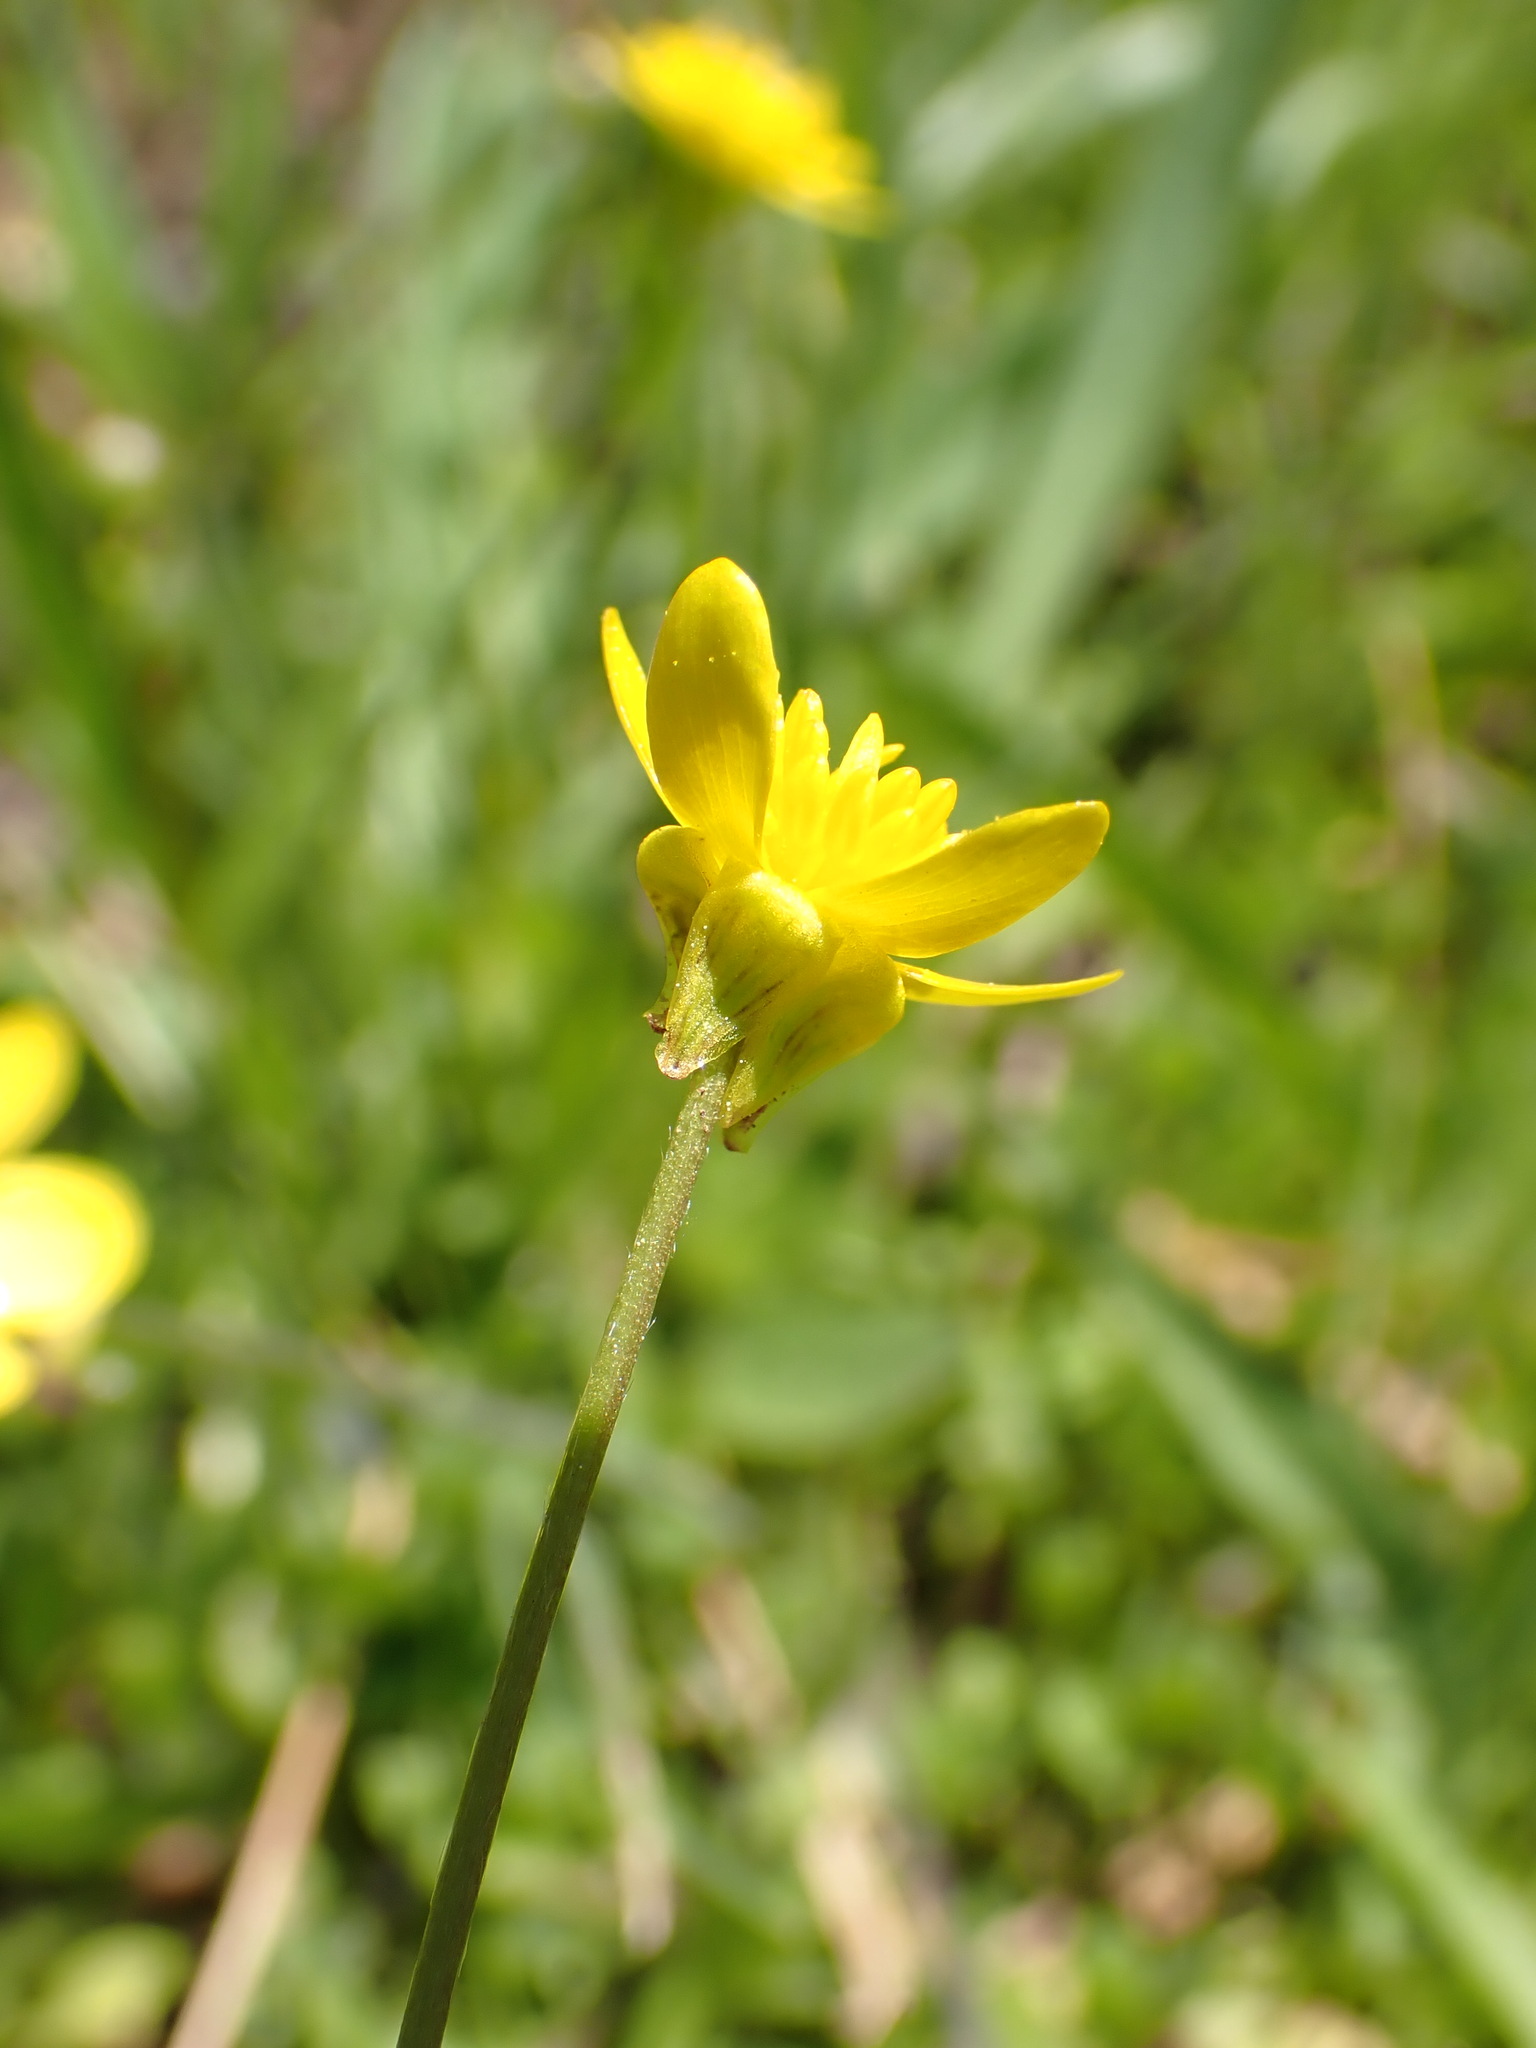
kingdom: Plantae
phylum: Tracheophyta
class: Magnoliopsida
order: Ranunculales
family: Ranunculaceae
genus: Ranunculus
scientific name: Ranunculus occidentalis
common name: Western buttercup
